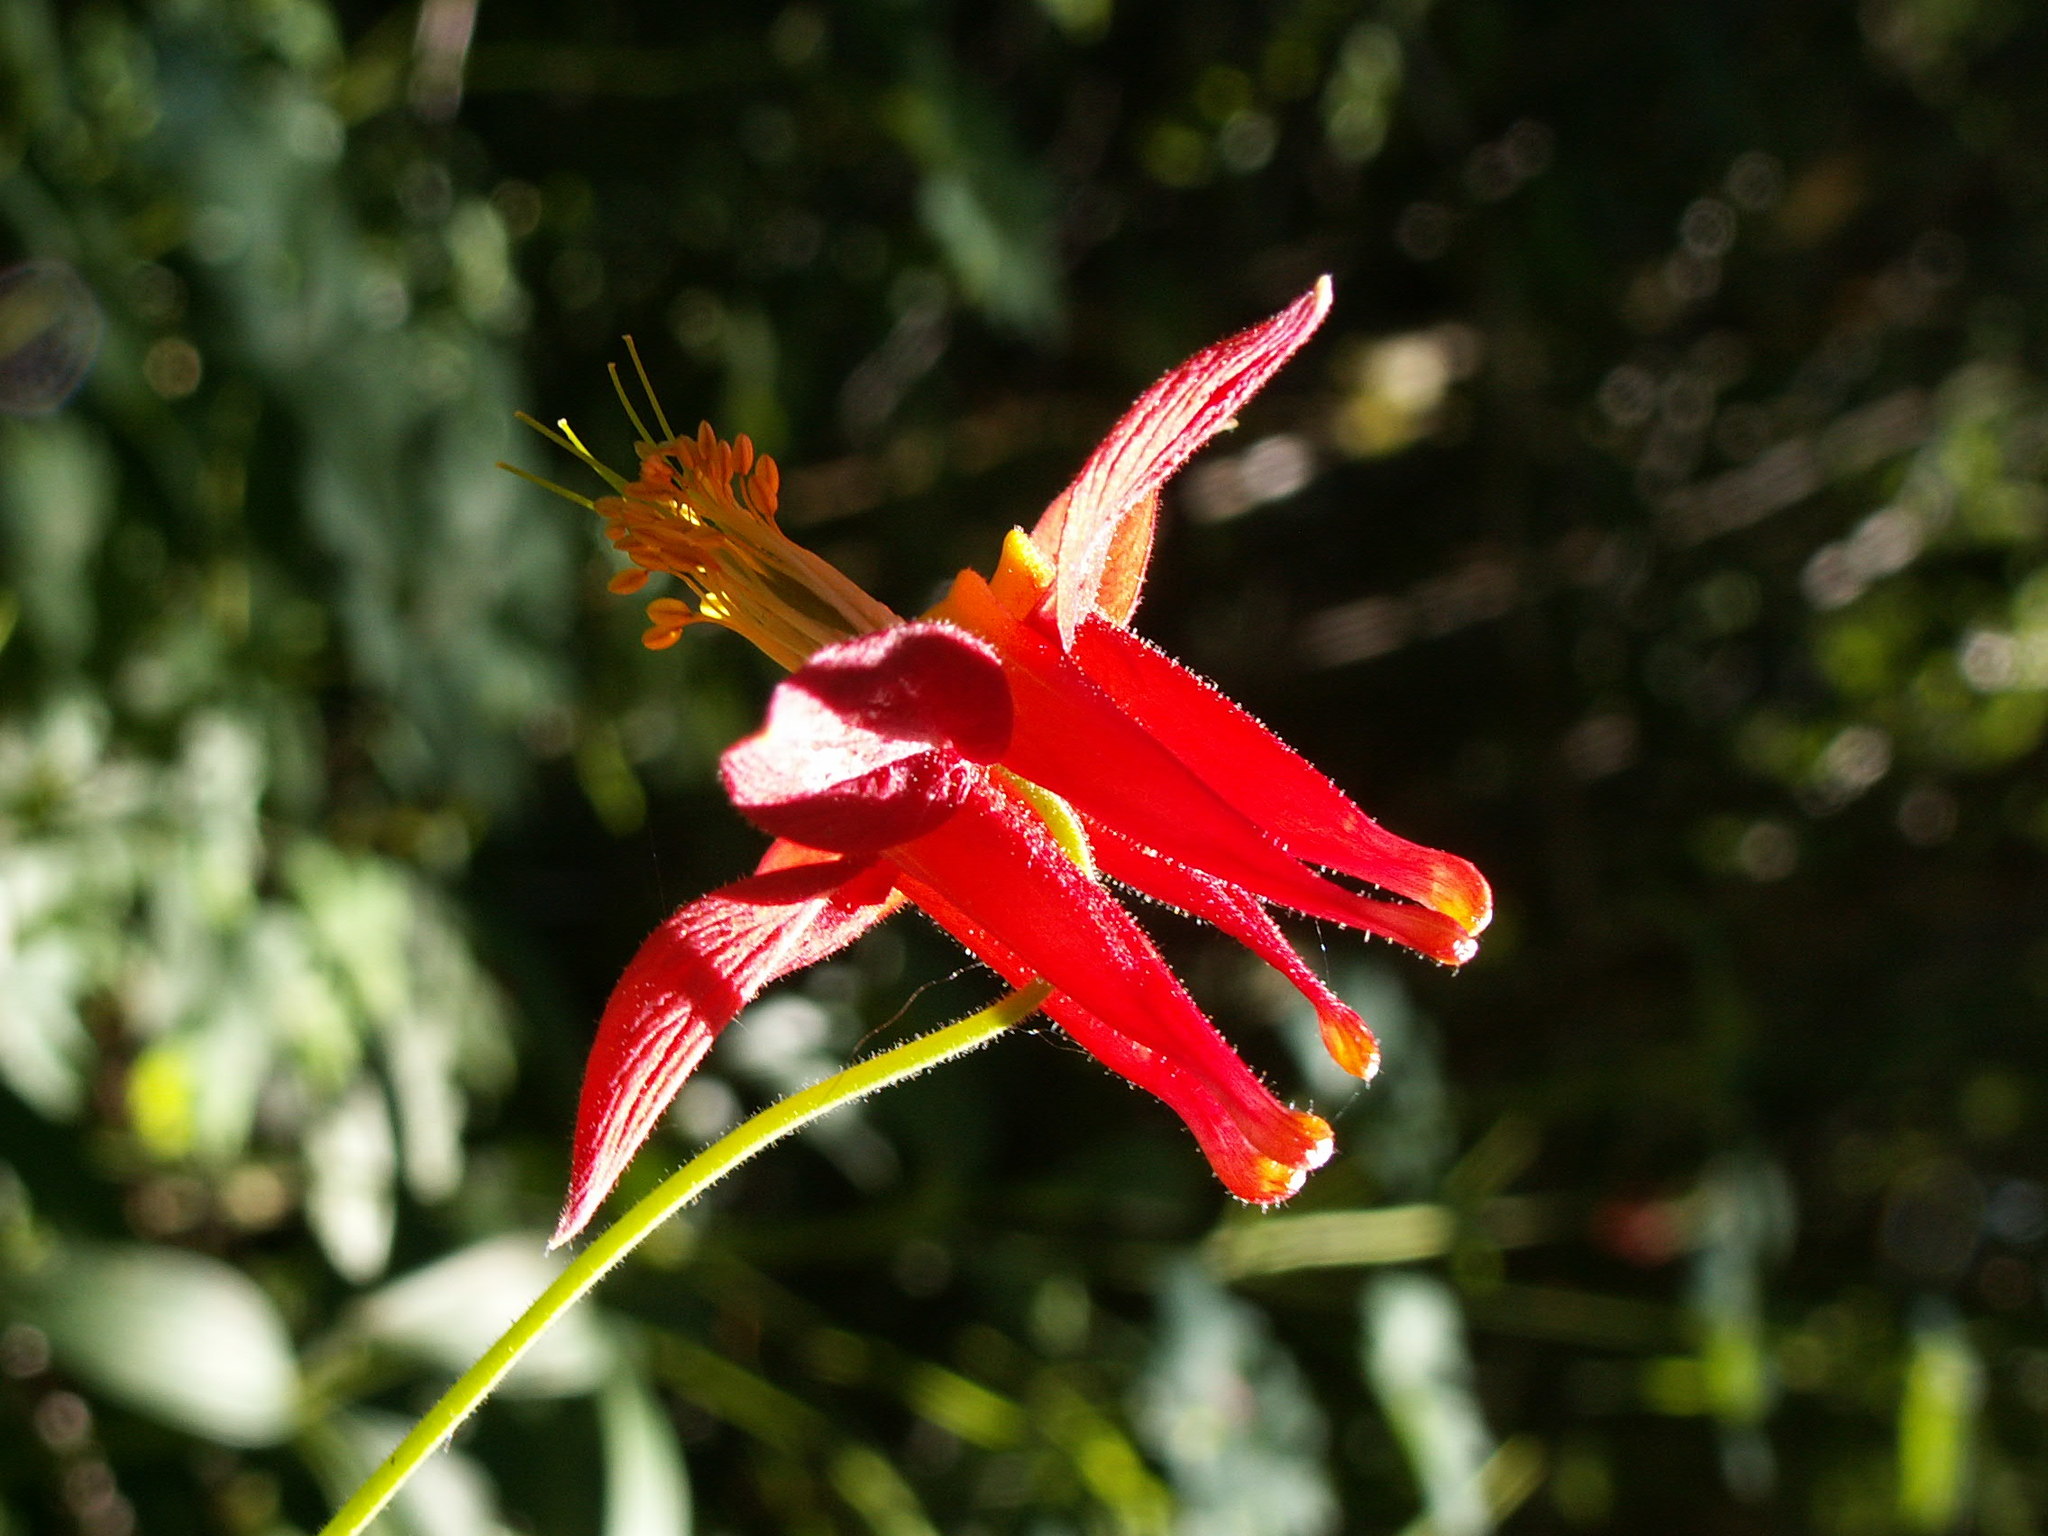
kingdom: Plantae
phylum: Tracheophyta
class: Magnoliopsida
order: Ranunculales
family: Ranunculaceae
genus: Aquilegia
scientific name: Aquilegia formosa
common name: Sitka columbine
